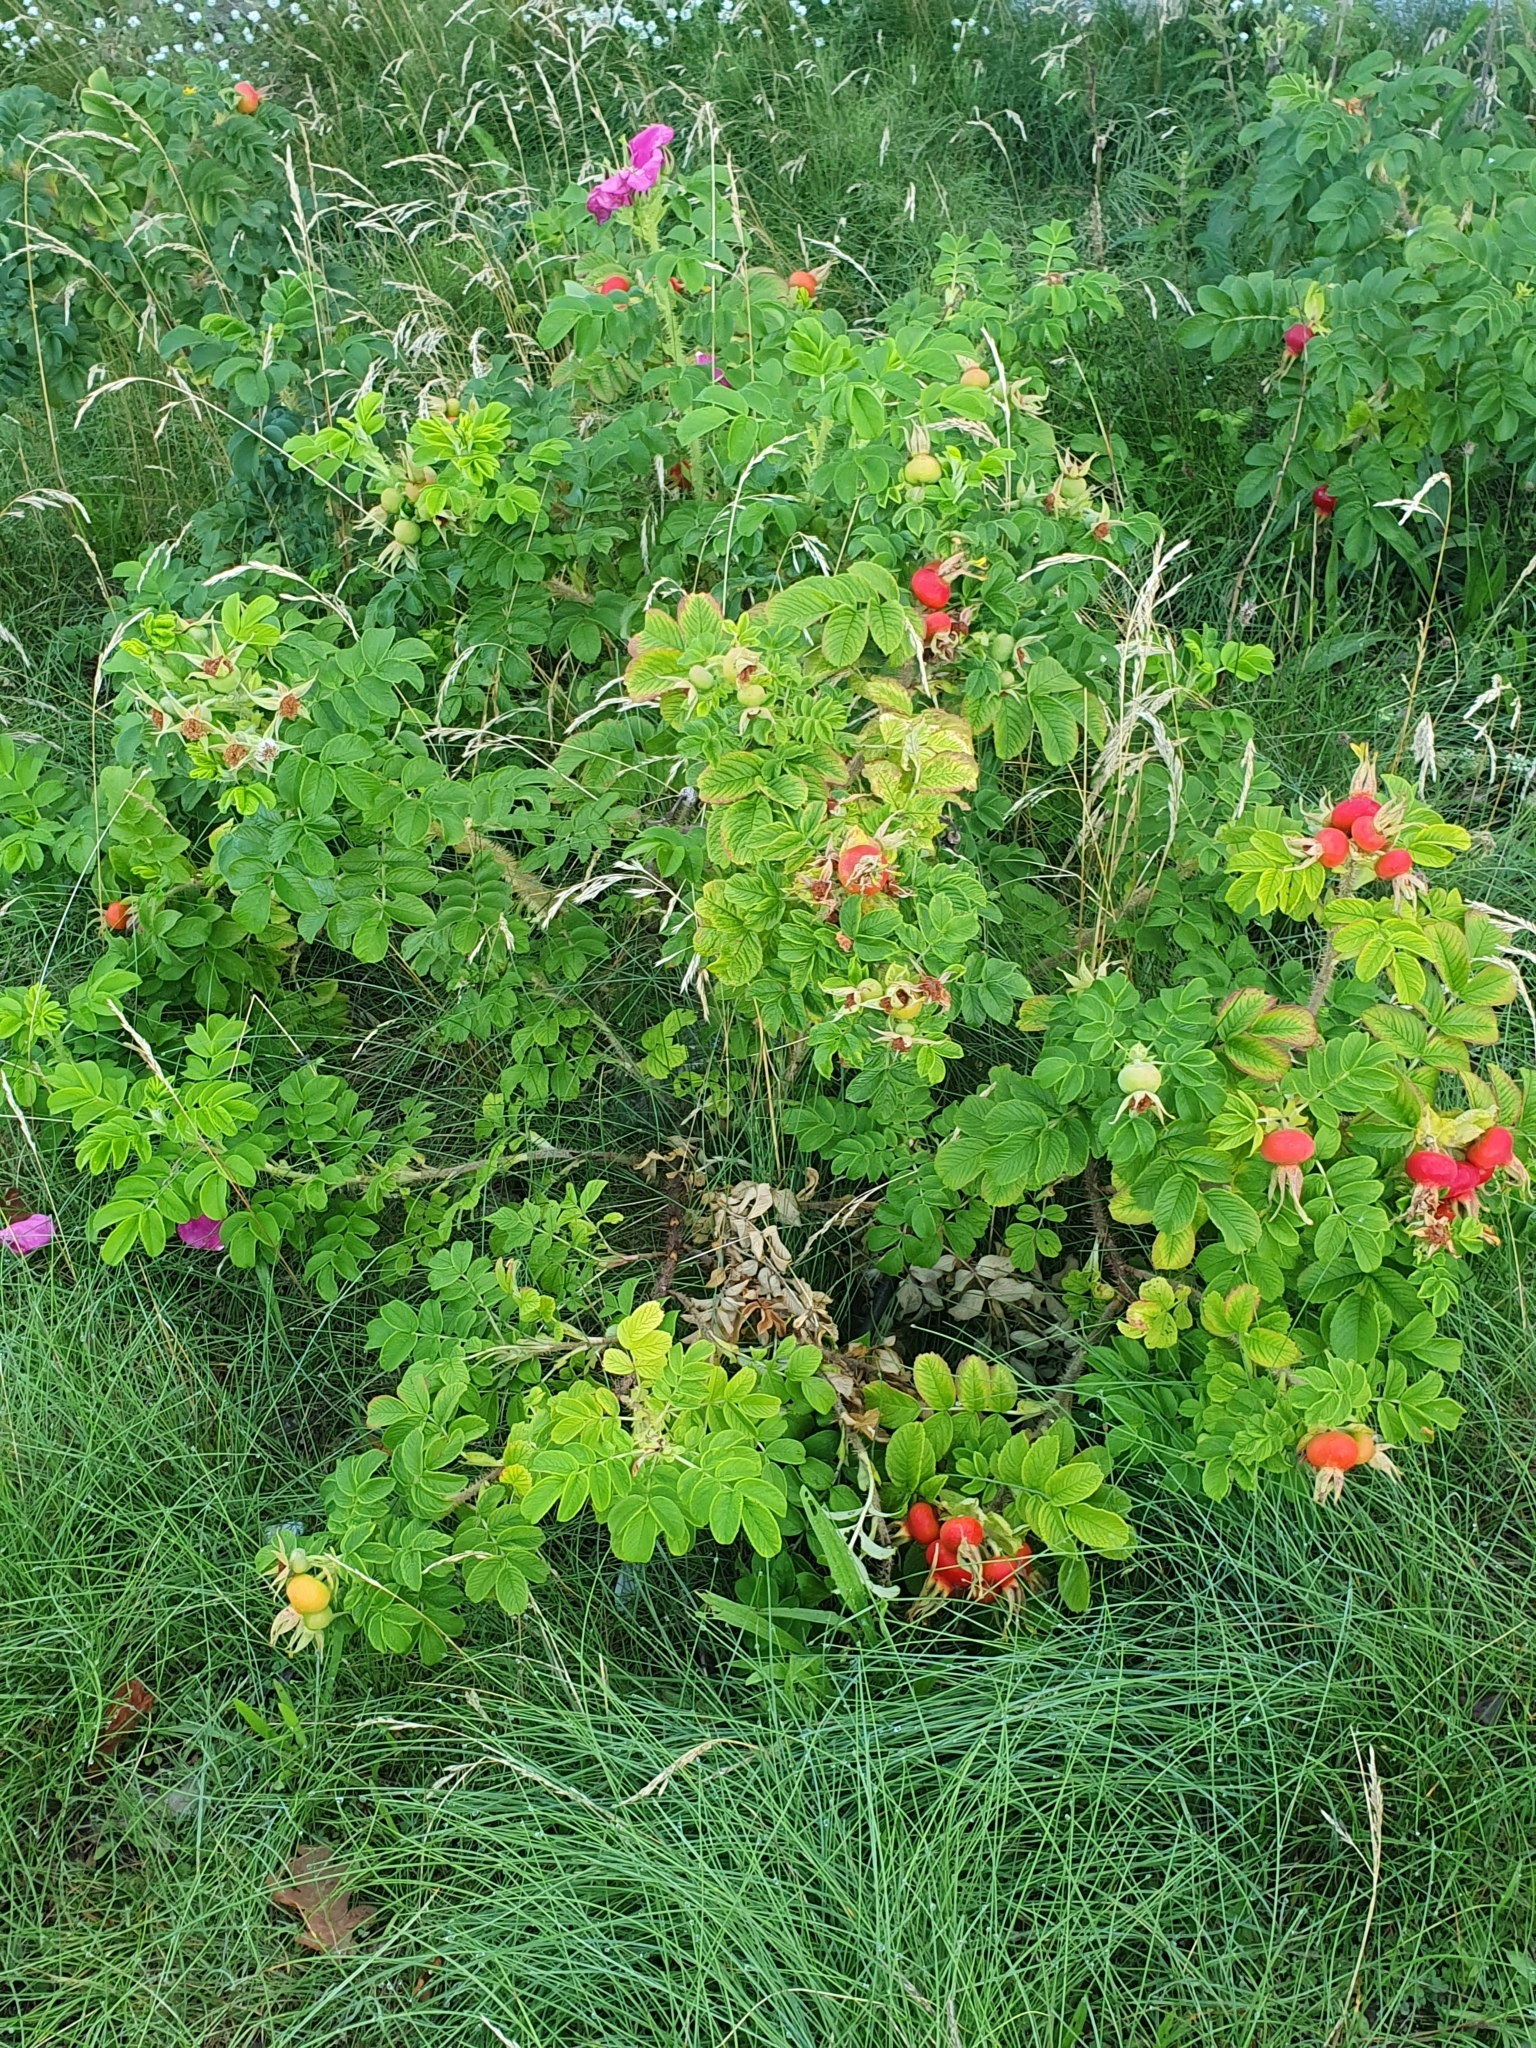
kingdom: Plantae
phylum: Tracheophyta
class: Magnoliopsida
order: Rosales
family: Rosaceae
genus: Rosa
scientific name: Rosa rugosa
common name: Japanese rose
